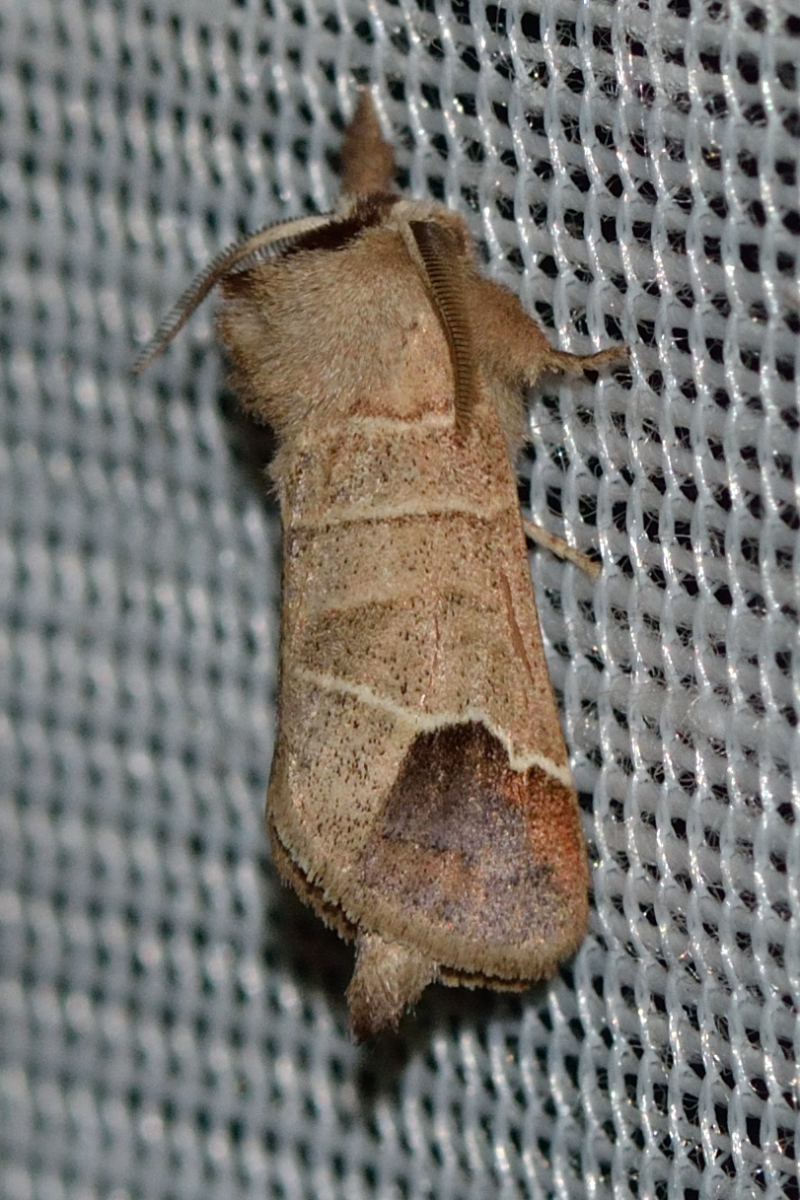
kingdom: Animalia
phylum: Arthropoda
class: Insecta
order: Lepidoptera
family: Notodontidae
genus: Clostera
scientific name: Clostera curtula
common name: Chocolate-tip
